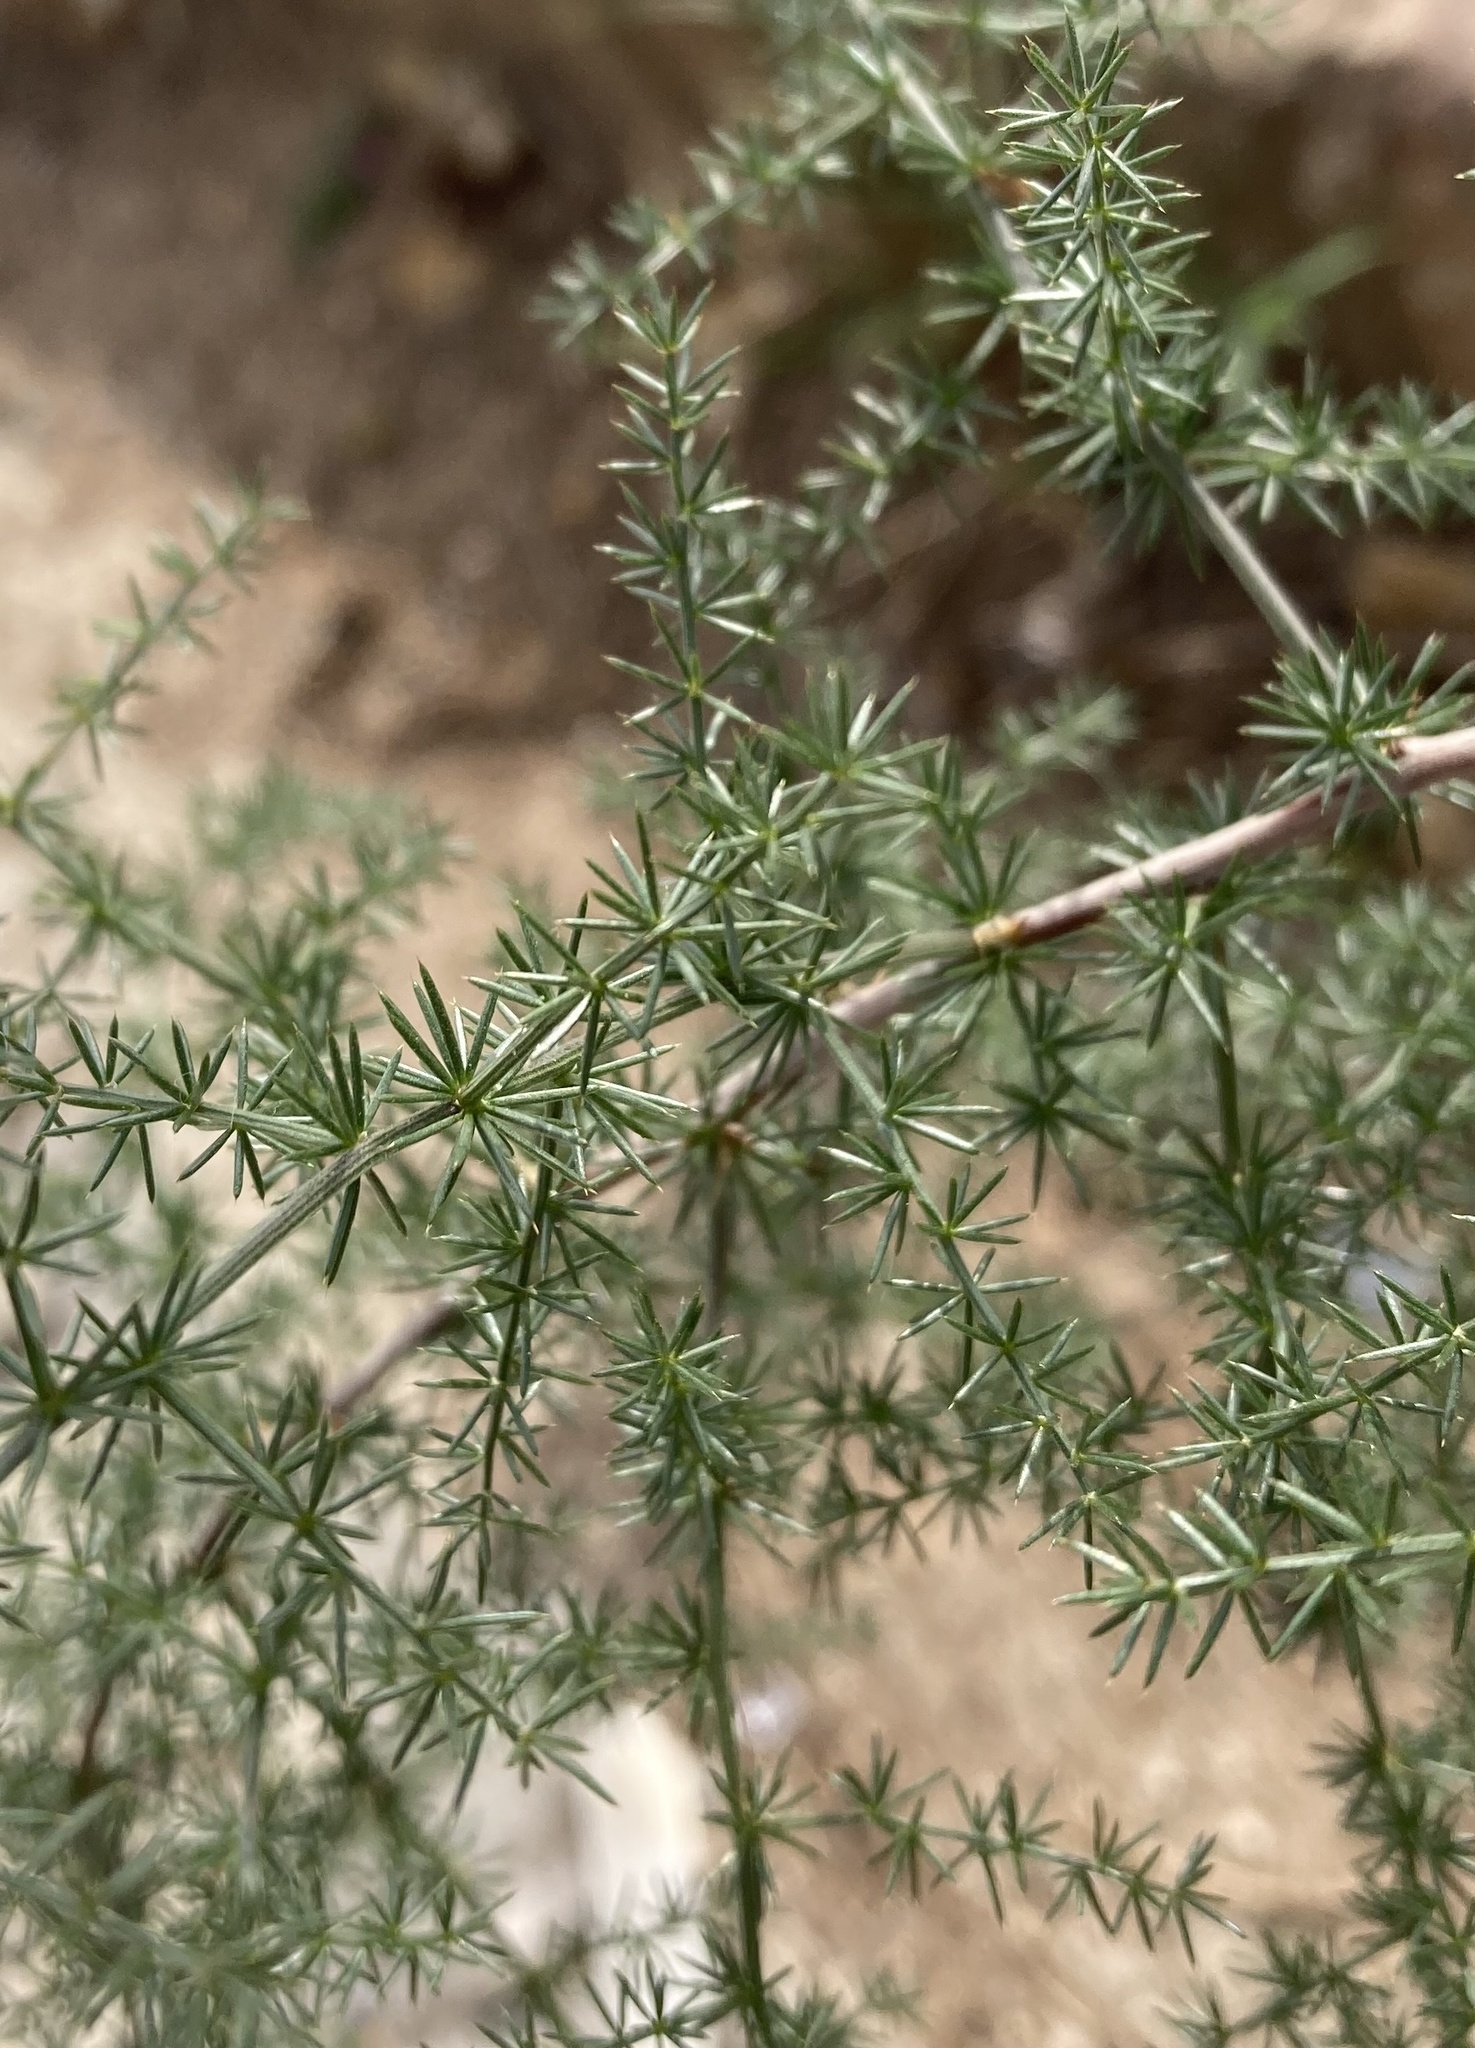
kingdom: Plantae
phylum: Tracheophyta
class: Liliopsida
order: Asparagales
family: Asparagaceae
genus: Asparagus
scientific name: Asparagus acutifolius
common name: Wild asparagus
